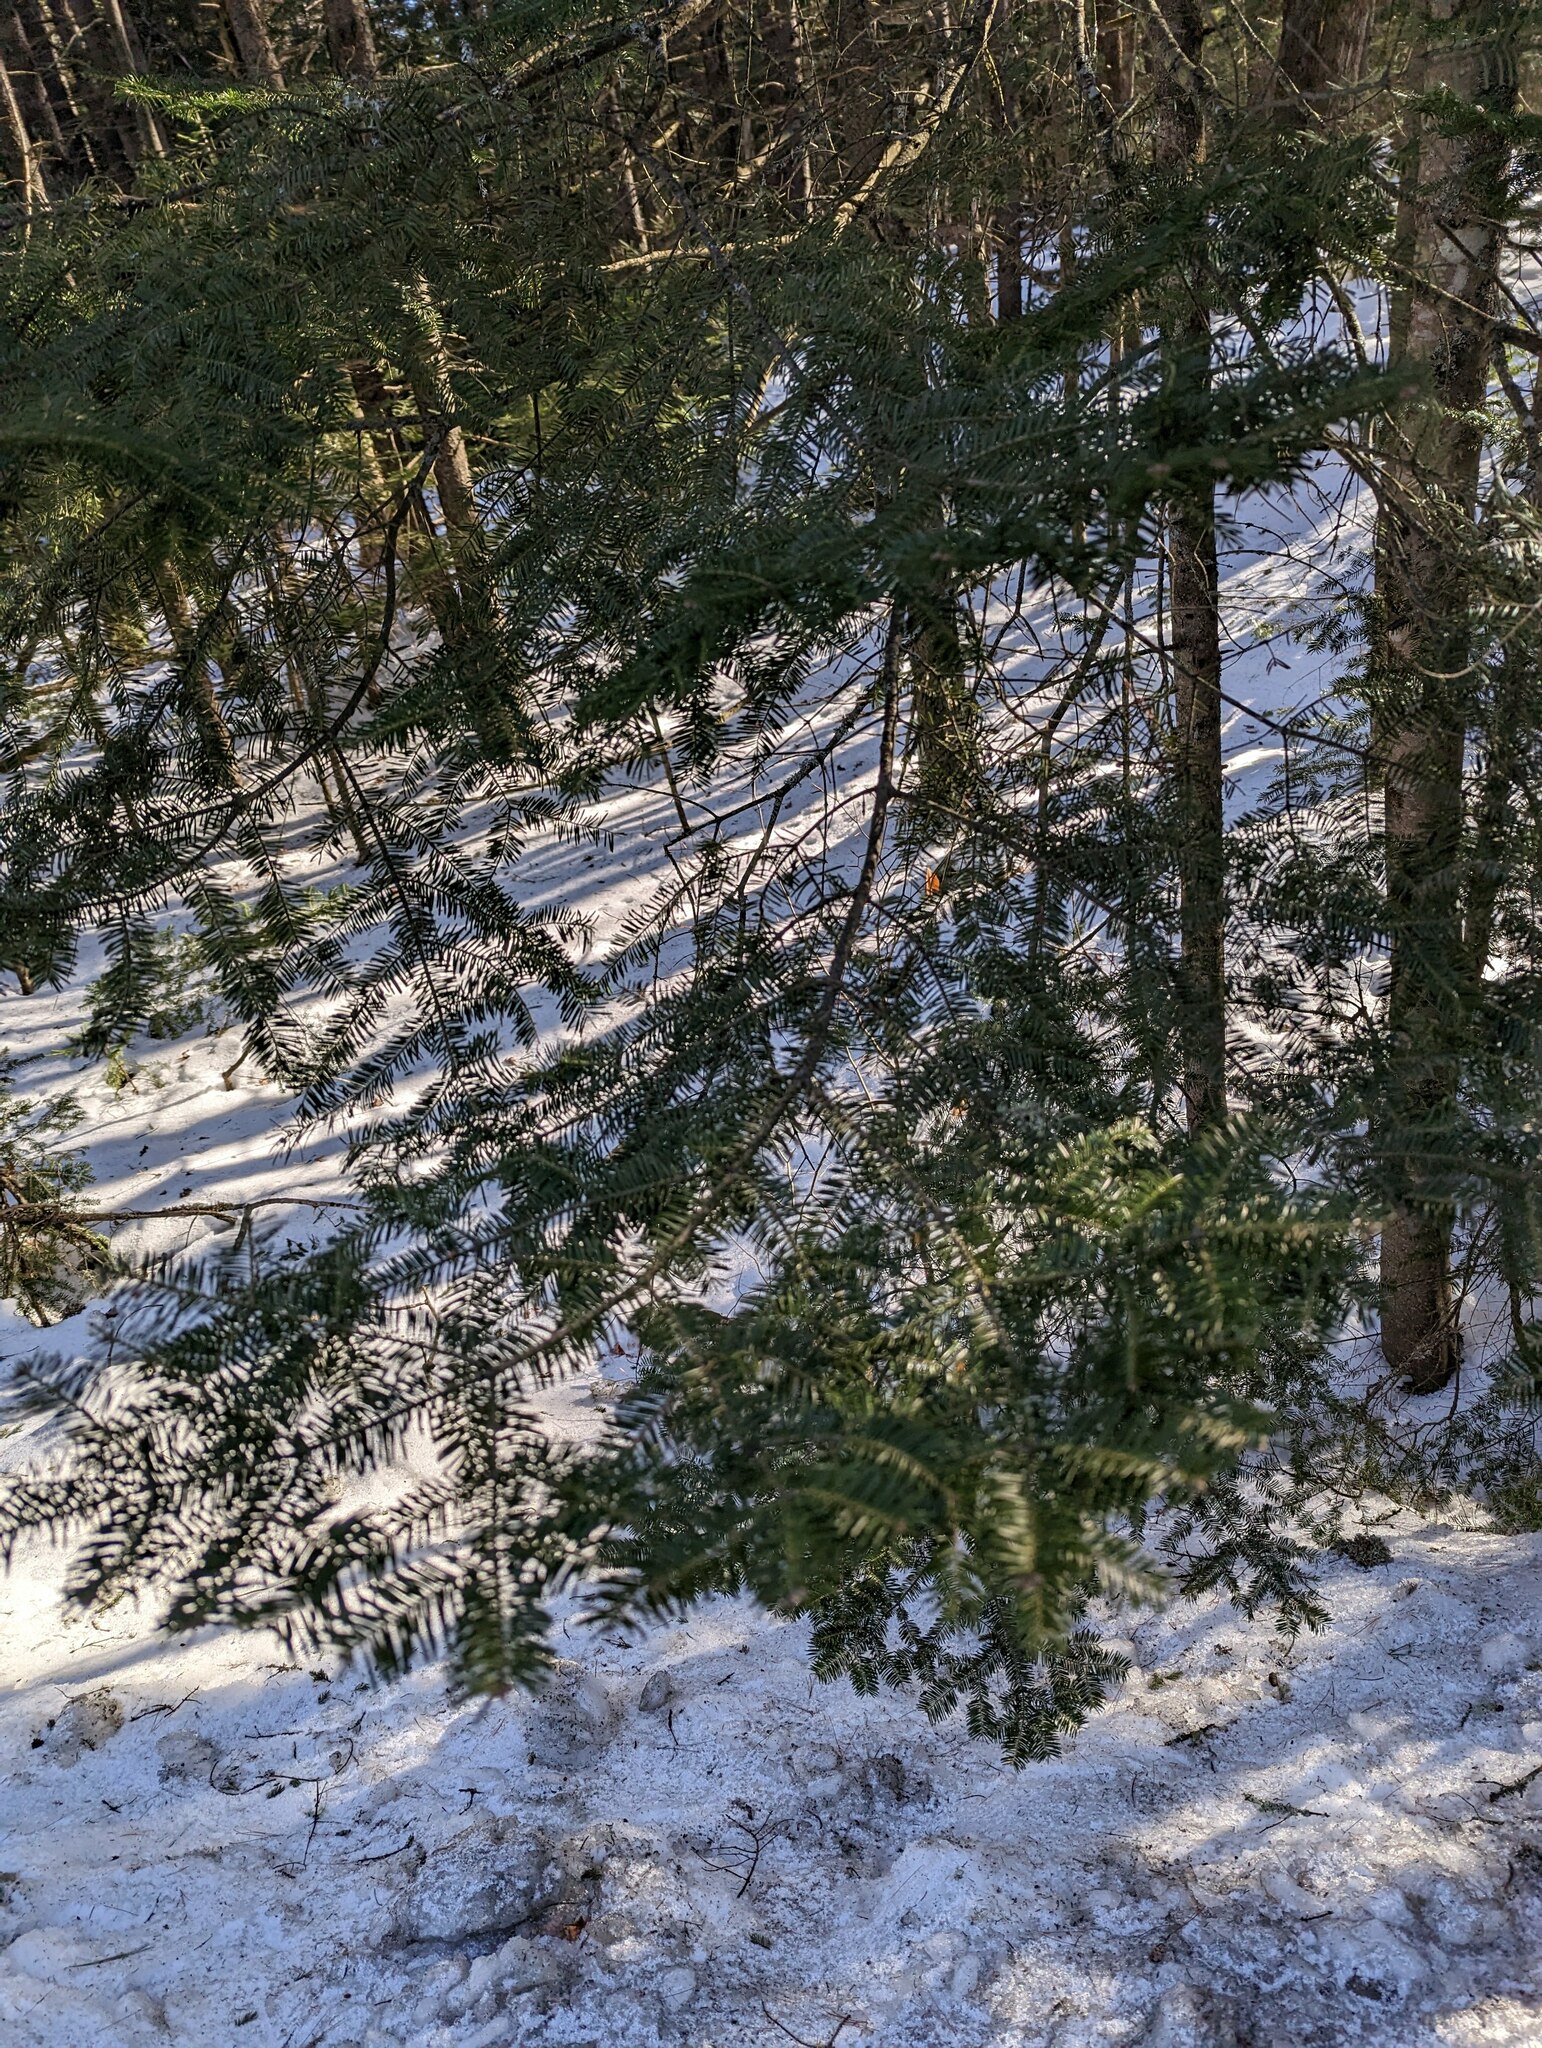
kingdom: Plantae
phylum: Tracheophyta
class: Pinopsida
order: Pinales
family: Pinaceae
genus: Abies
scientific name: Abies balsamea
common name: Balsam fir
